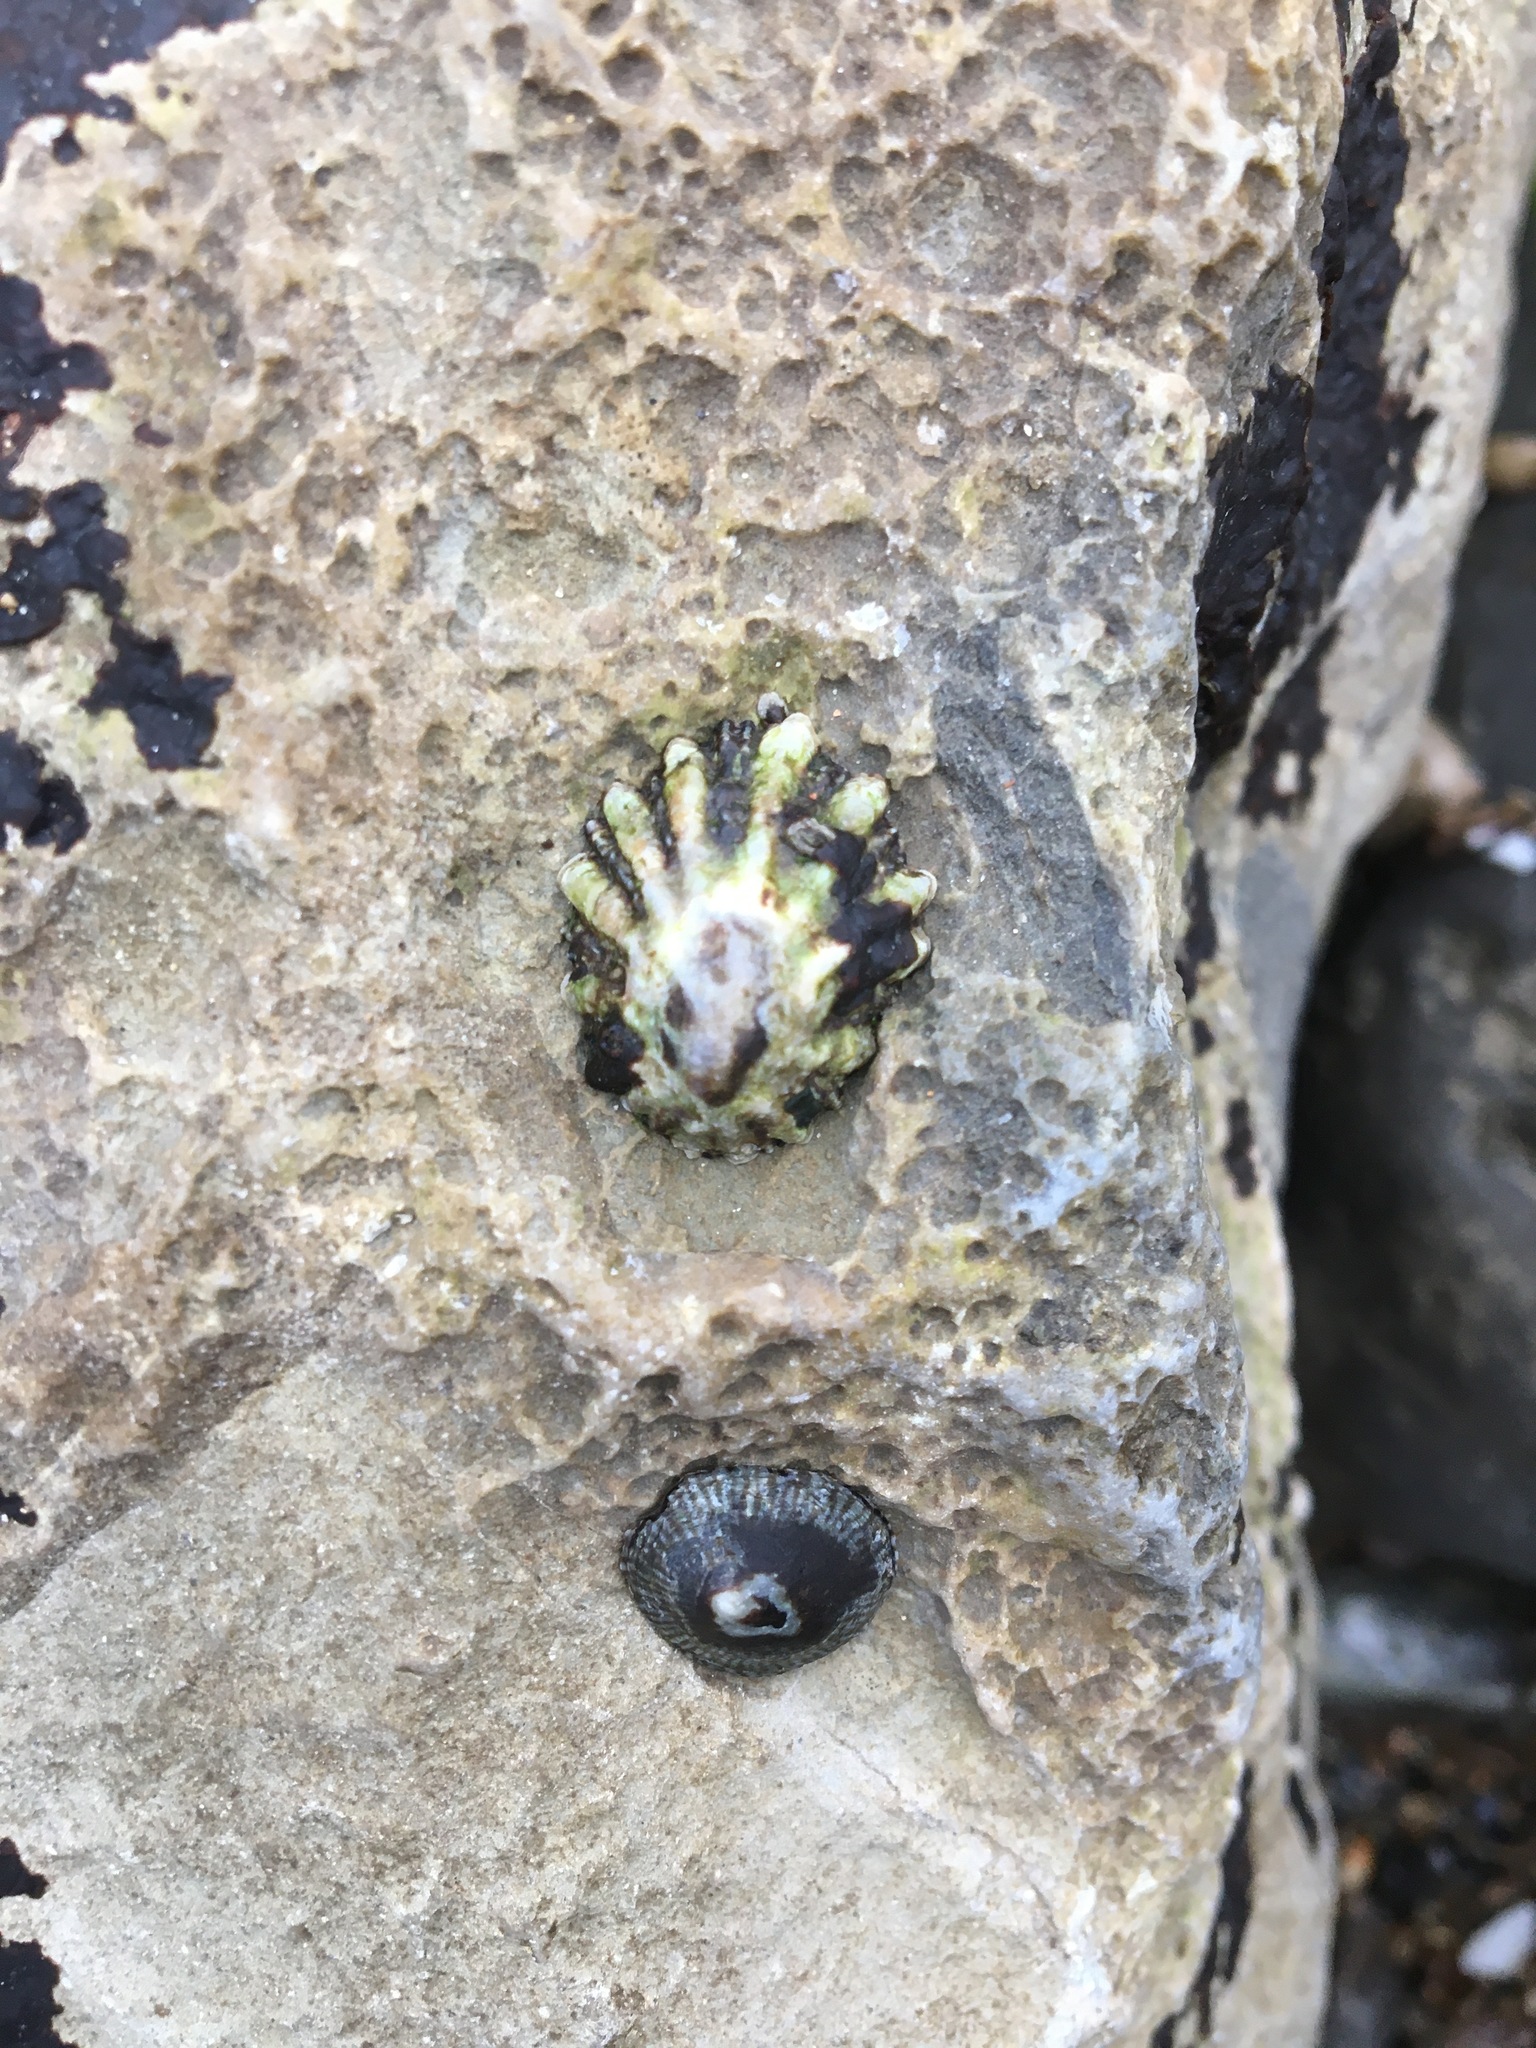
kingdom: Animalia
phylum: Mollusca
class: Gastropoda
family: Lottiidae
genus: Lottia
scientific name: Lottia scabra
